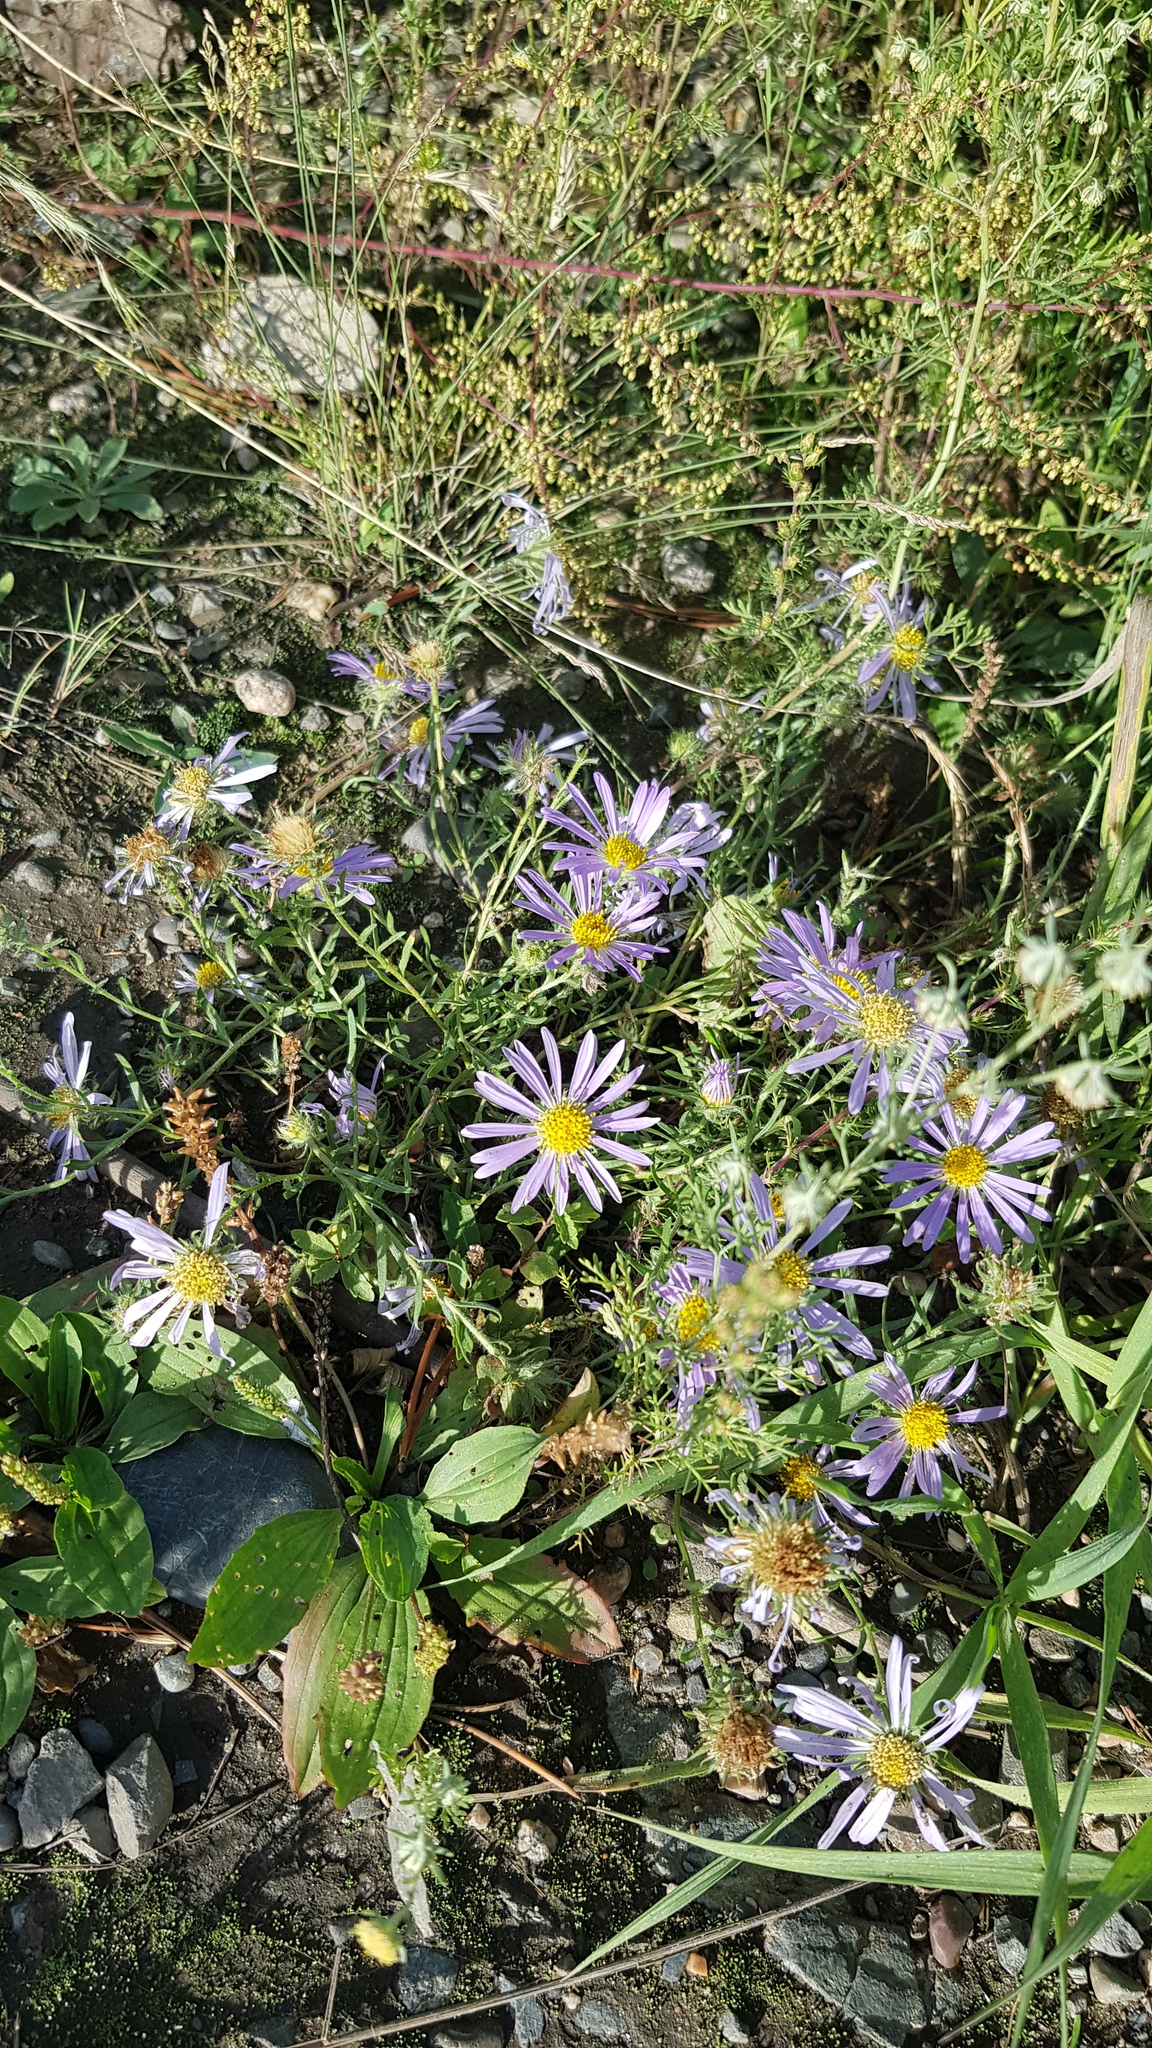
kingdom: Plantae
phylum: Tracheophyta
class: Magnoliopsida
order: Asterales
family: Asteraceae
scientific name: Asteraceae
